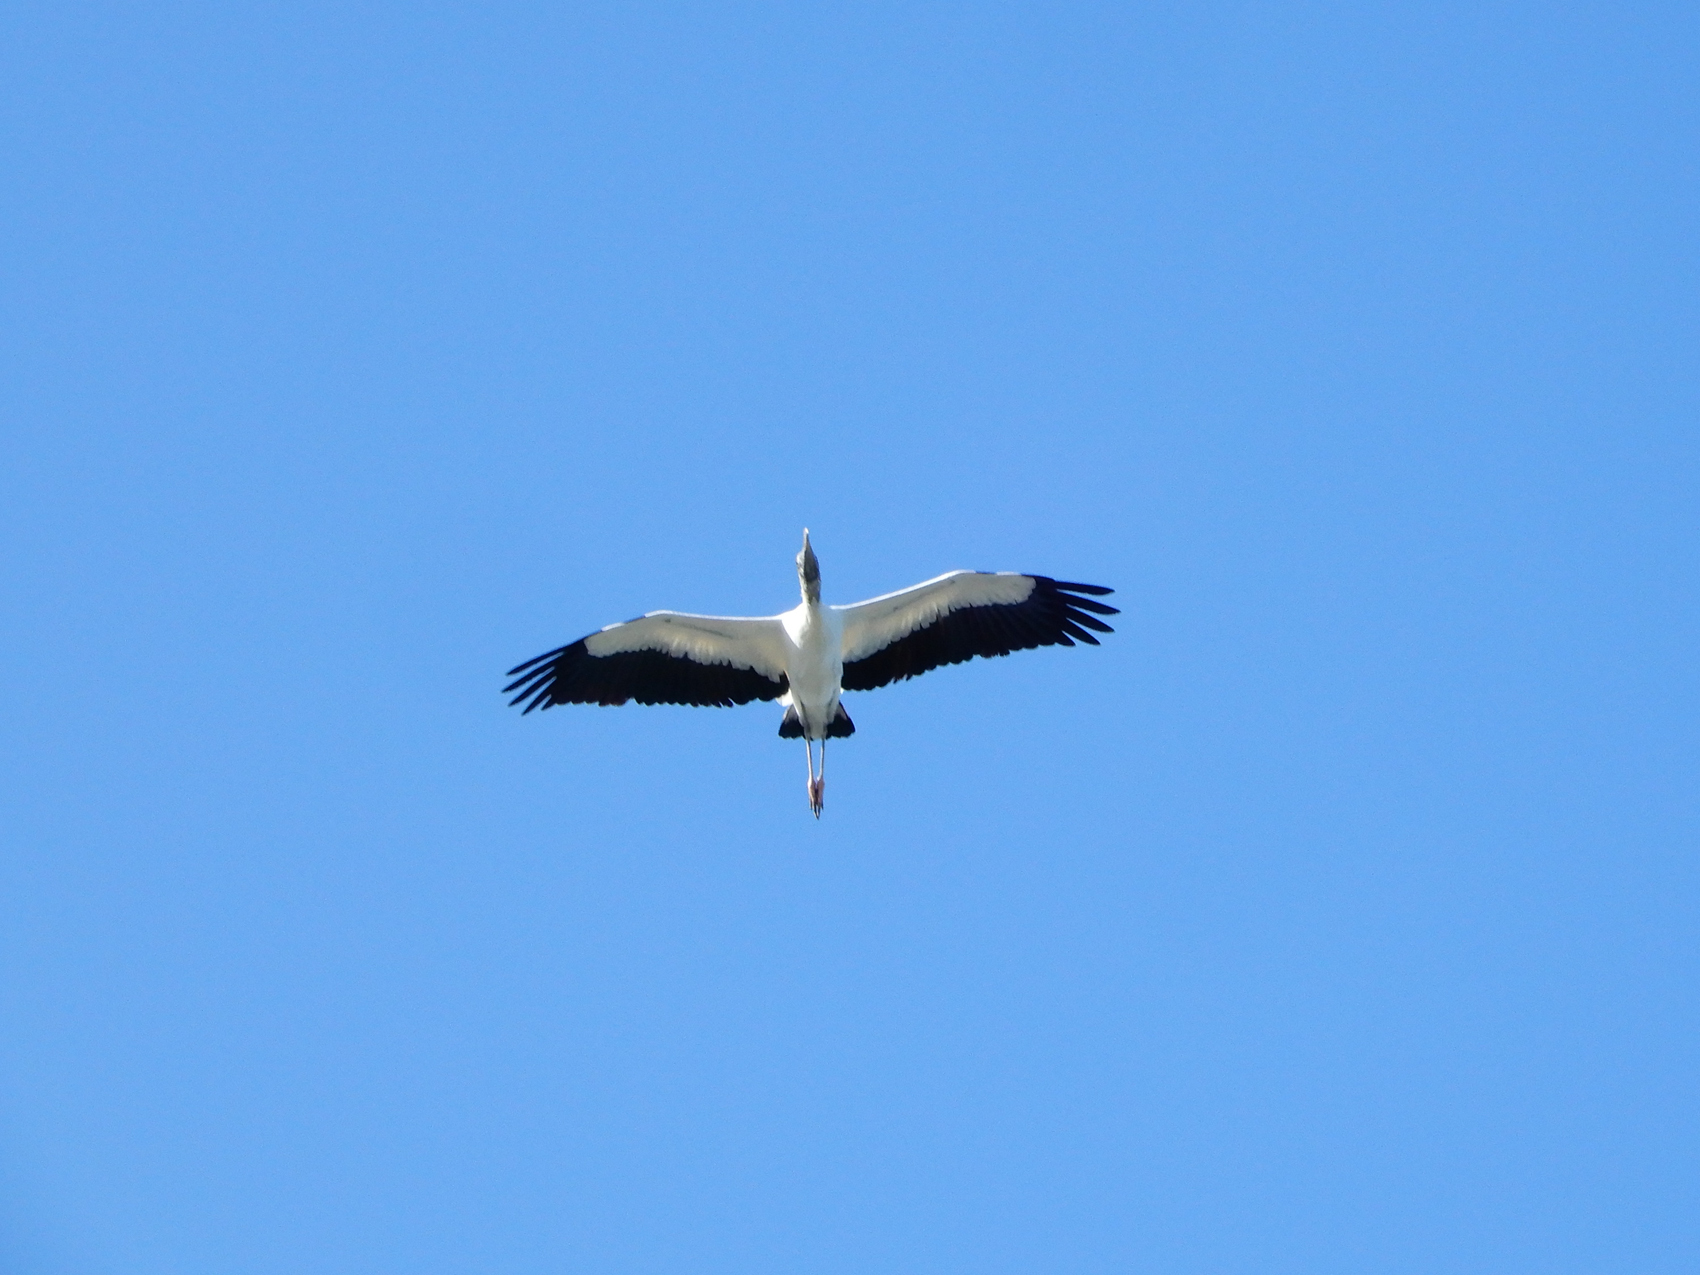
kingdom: Animalia
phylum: Chordata
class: Aves
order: Ciconiiformes
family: Ciconiidae
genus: Mycteria
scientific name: Mycteria americana
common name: Wood stork
